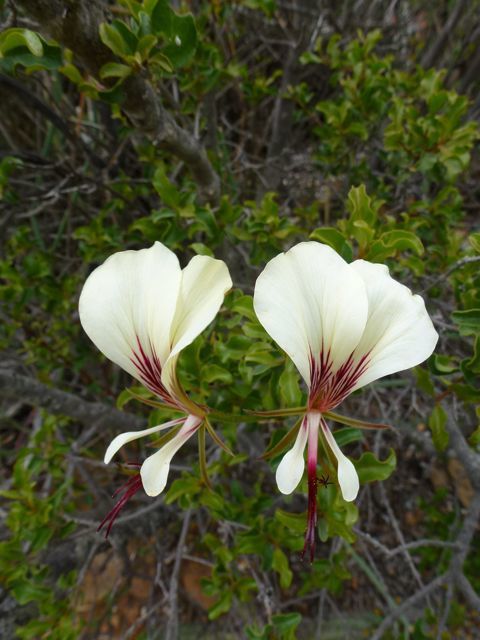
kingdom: Plantae
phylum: Tracheophyta
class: Magnoliopsida
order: Geraniales
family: Geraniaceae
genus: Pelargonium
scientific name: Pelargonium tetragonum
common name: Square-stack crane's-bill
